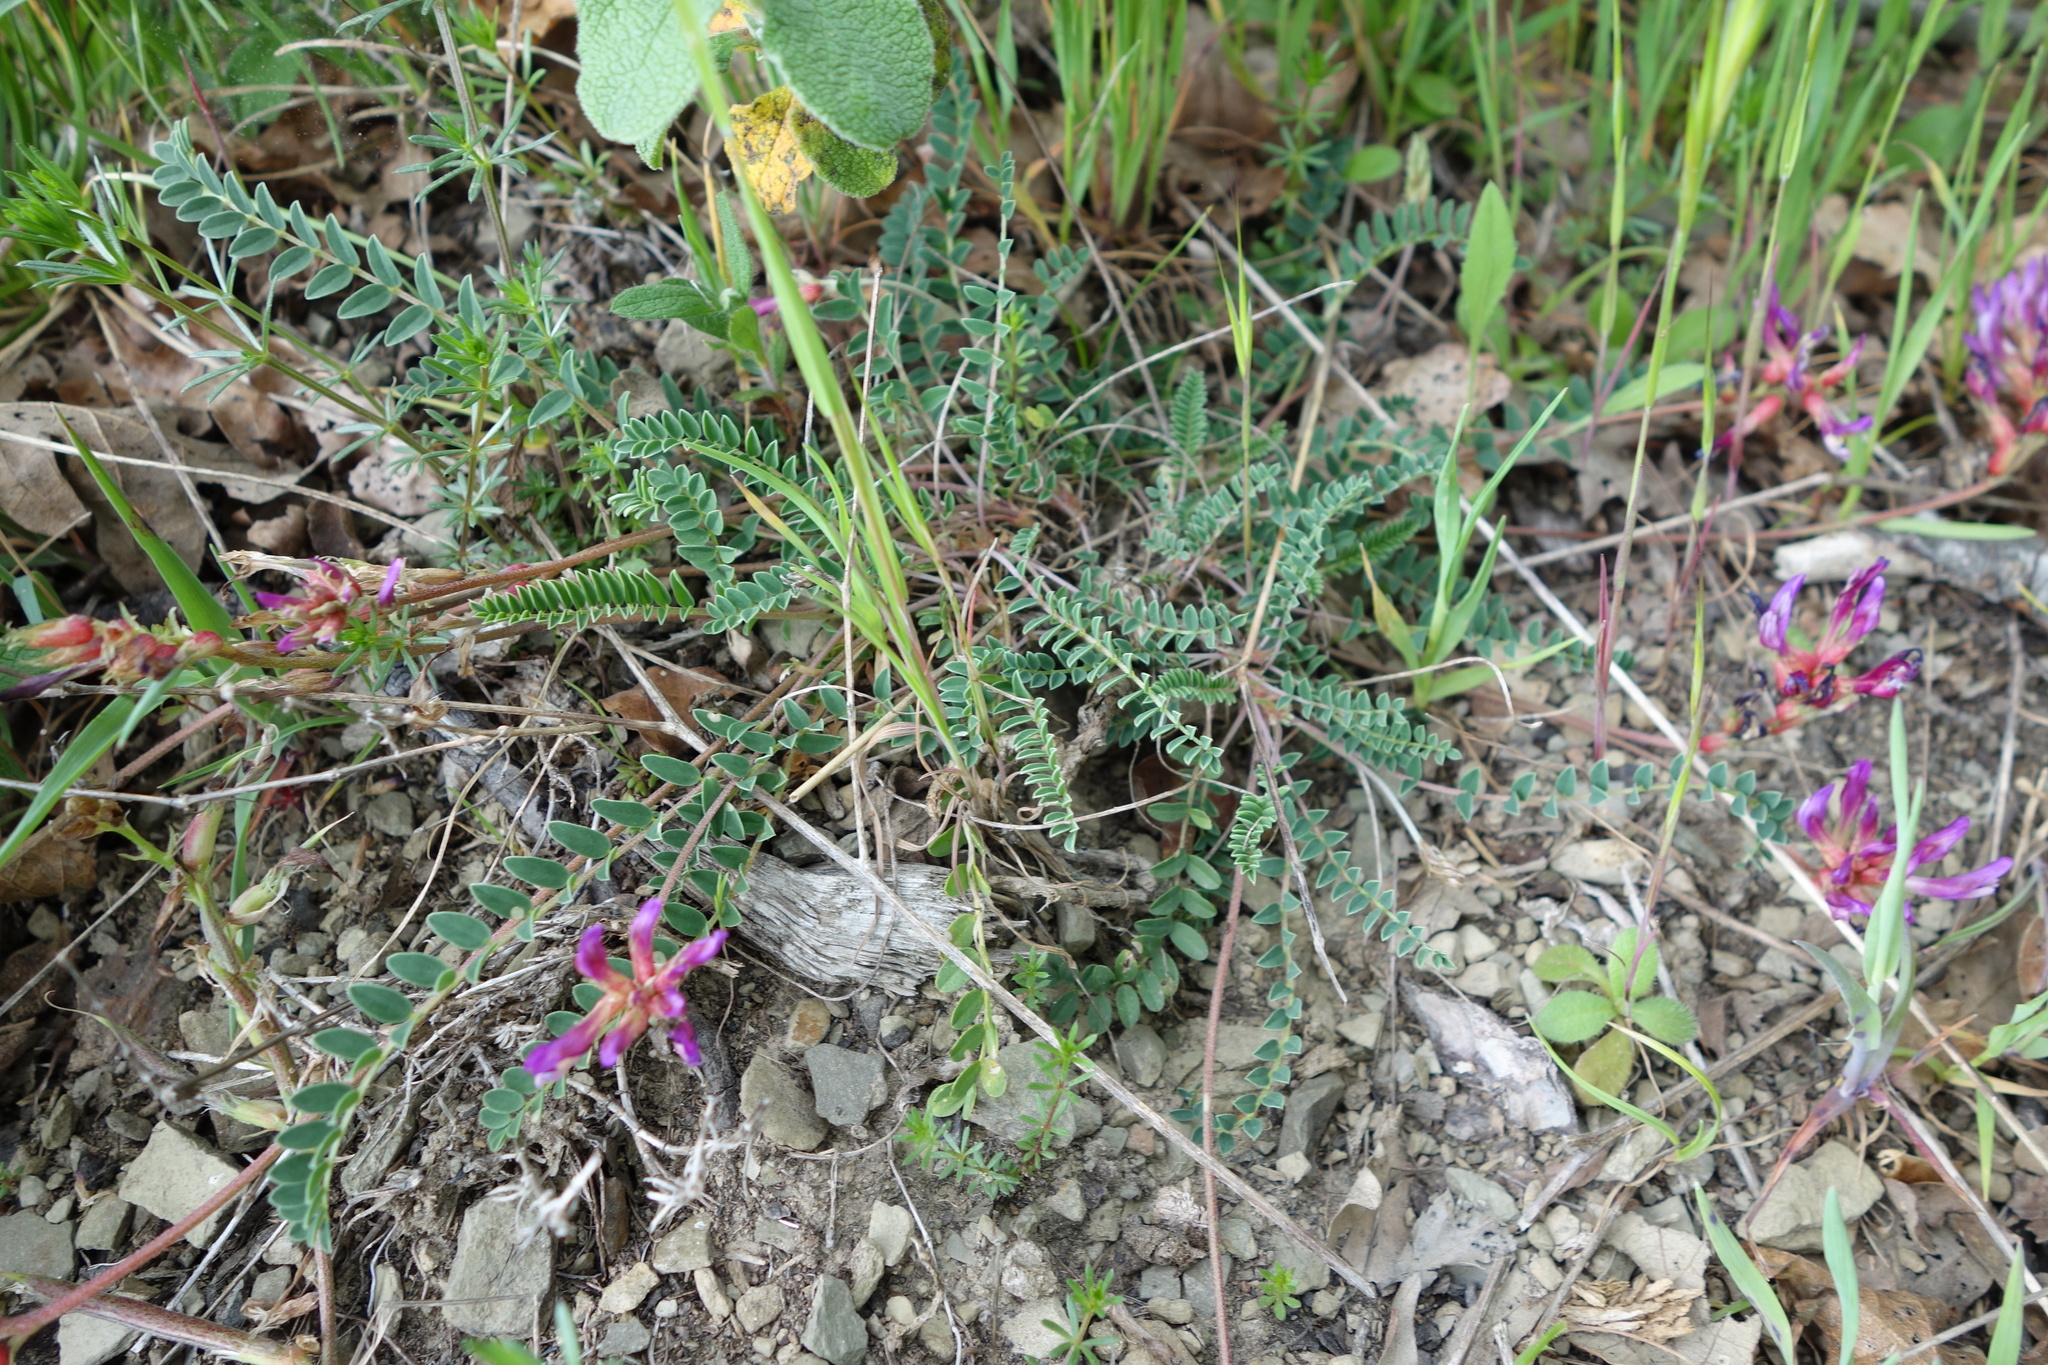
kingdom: Plantae
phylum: Tracheophyta
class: Magnoliopsida
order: Fabales
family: Fabaceae
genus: Astragalus
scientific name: Astragalus monspessulanus
